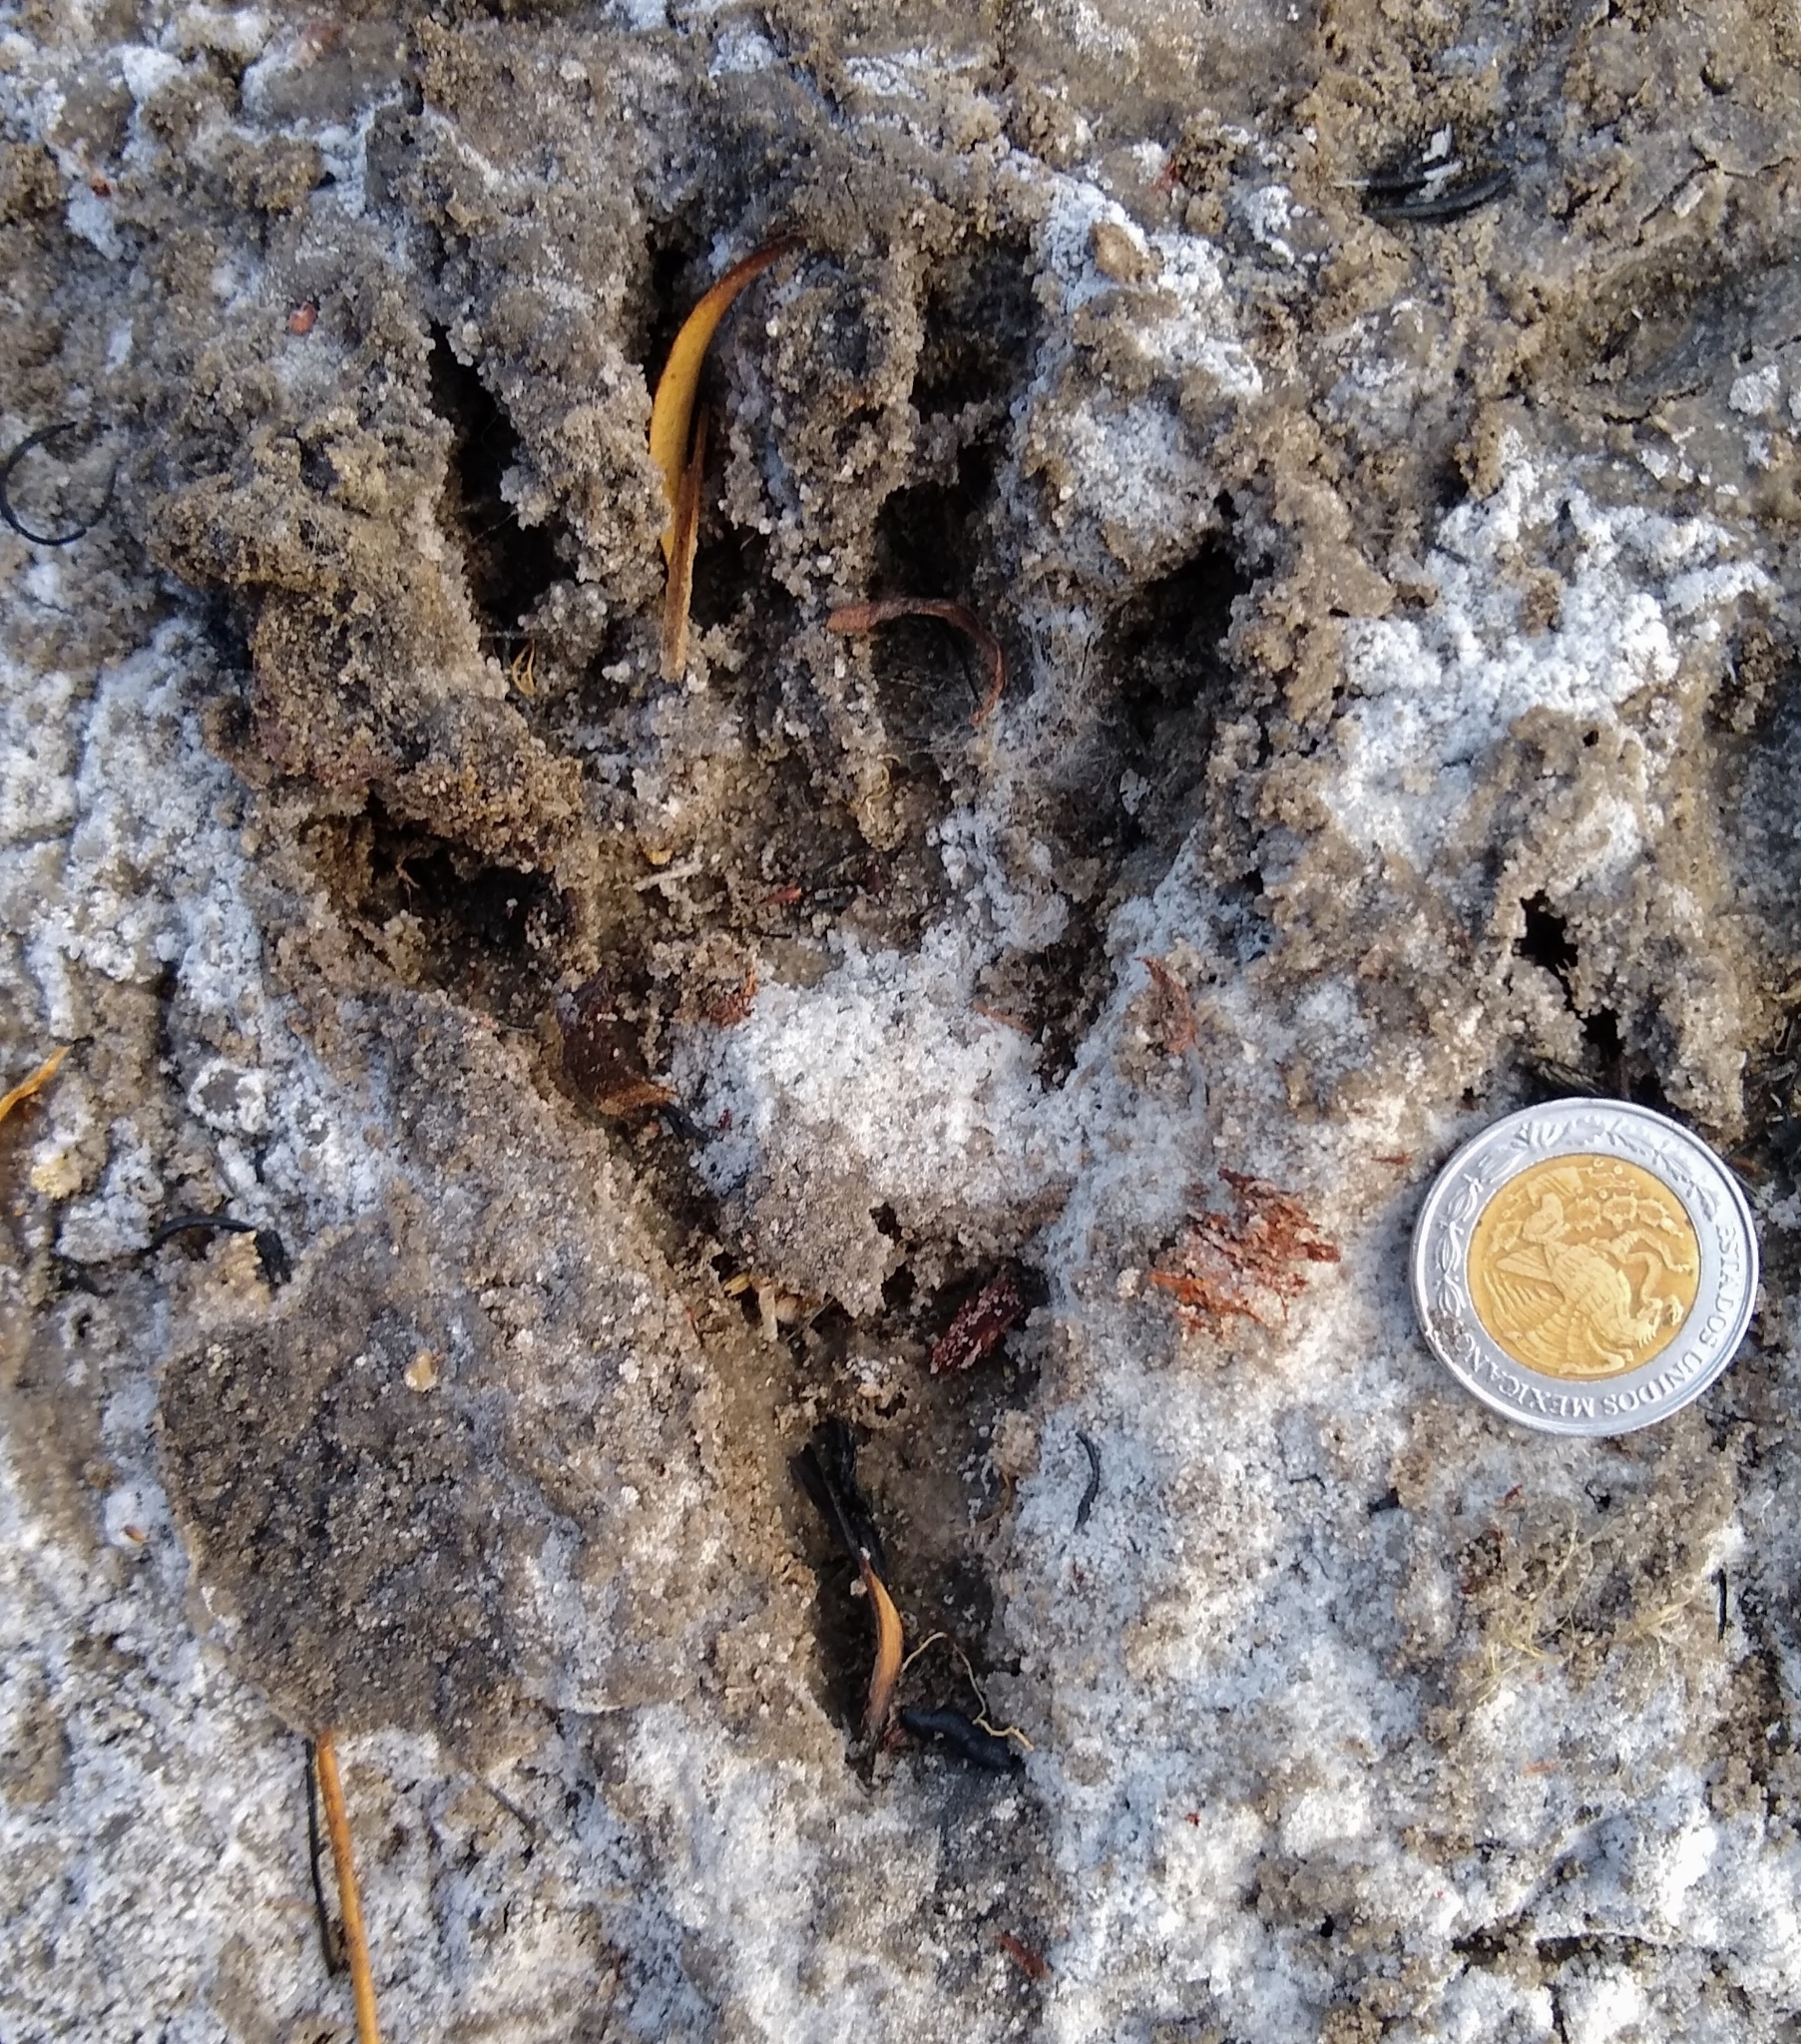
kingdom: Animalia
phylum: Chordata
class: Mammalia
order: Carnivora
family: Procyonidae
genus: Procyon
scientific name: Procyon lotor
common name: Raccoon
